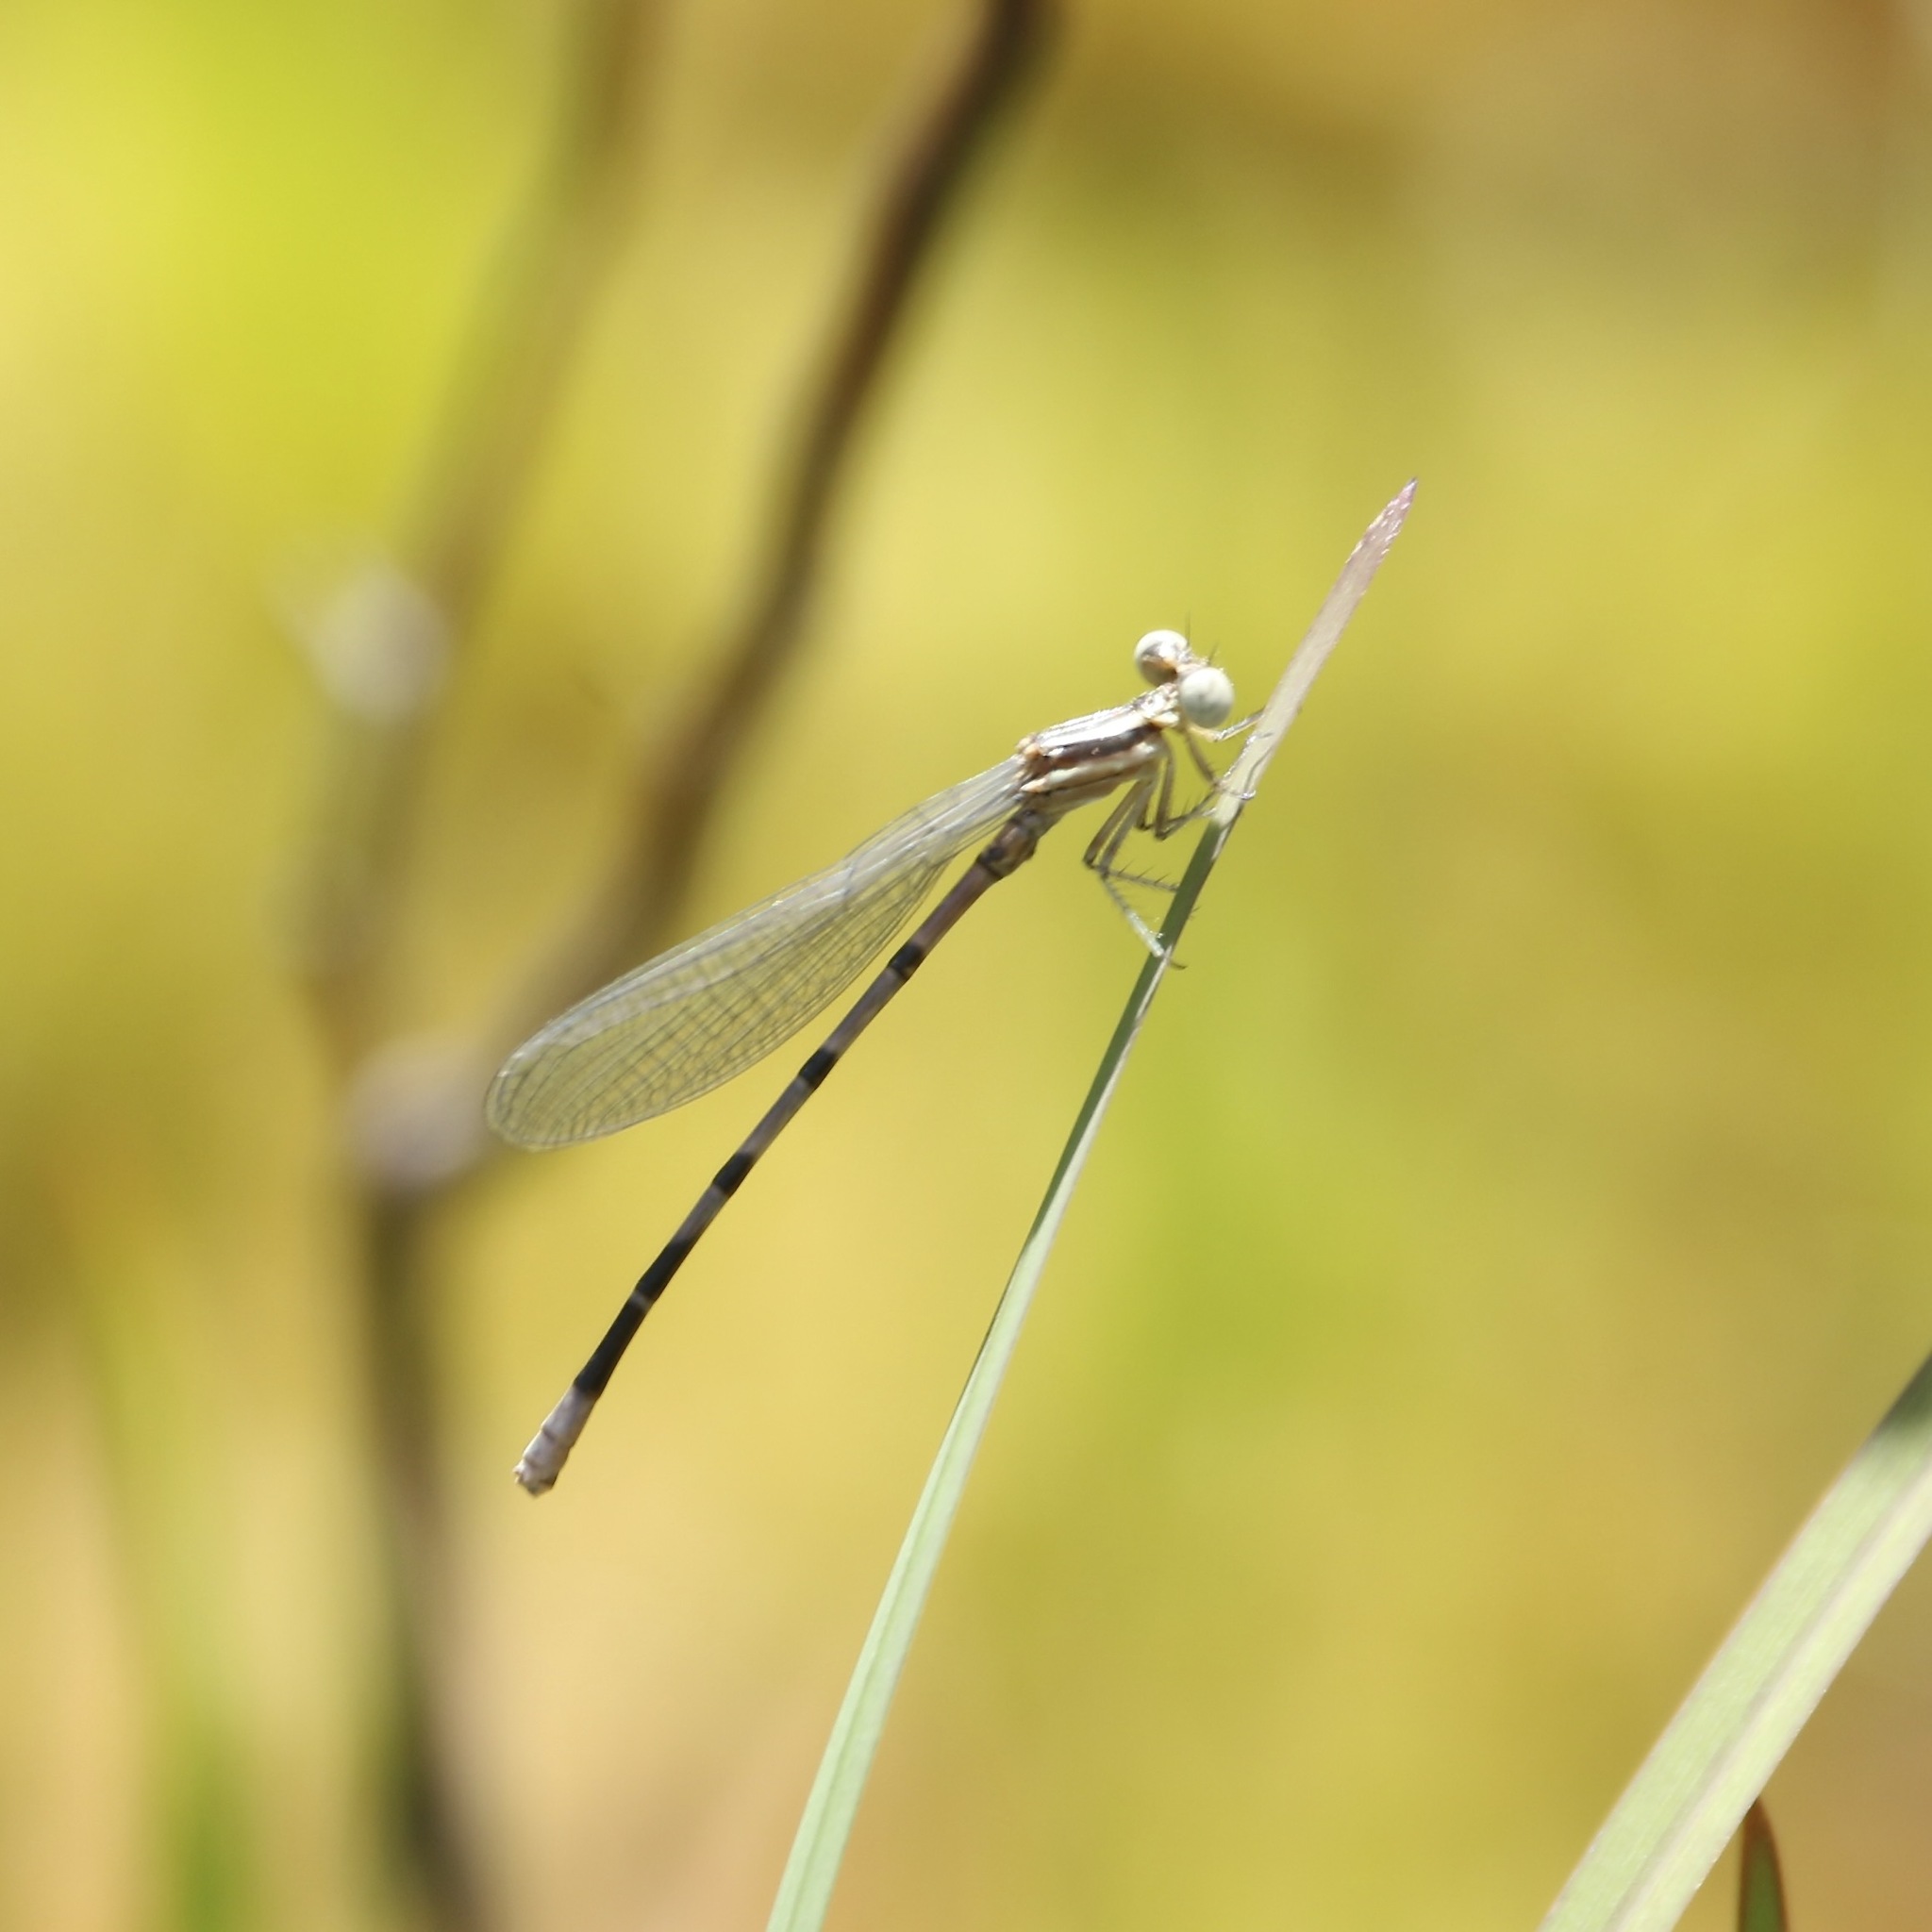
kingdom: Animalia
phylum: Arthropoda
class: Insecta
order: Odonata
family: Coenagrionidae
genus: Argia
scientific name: Argia bipunctulata
